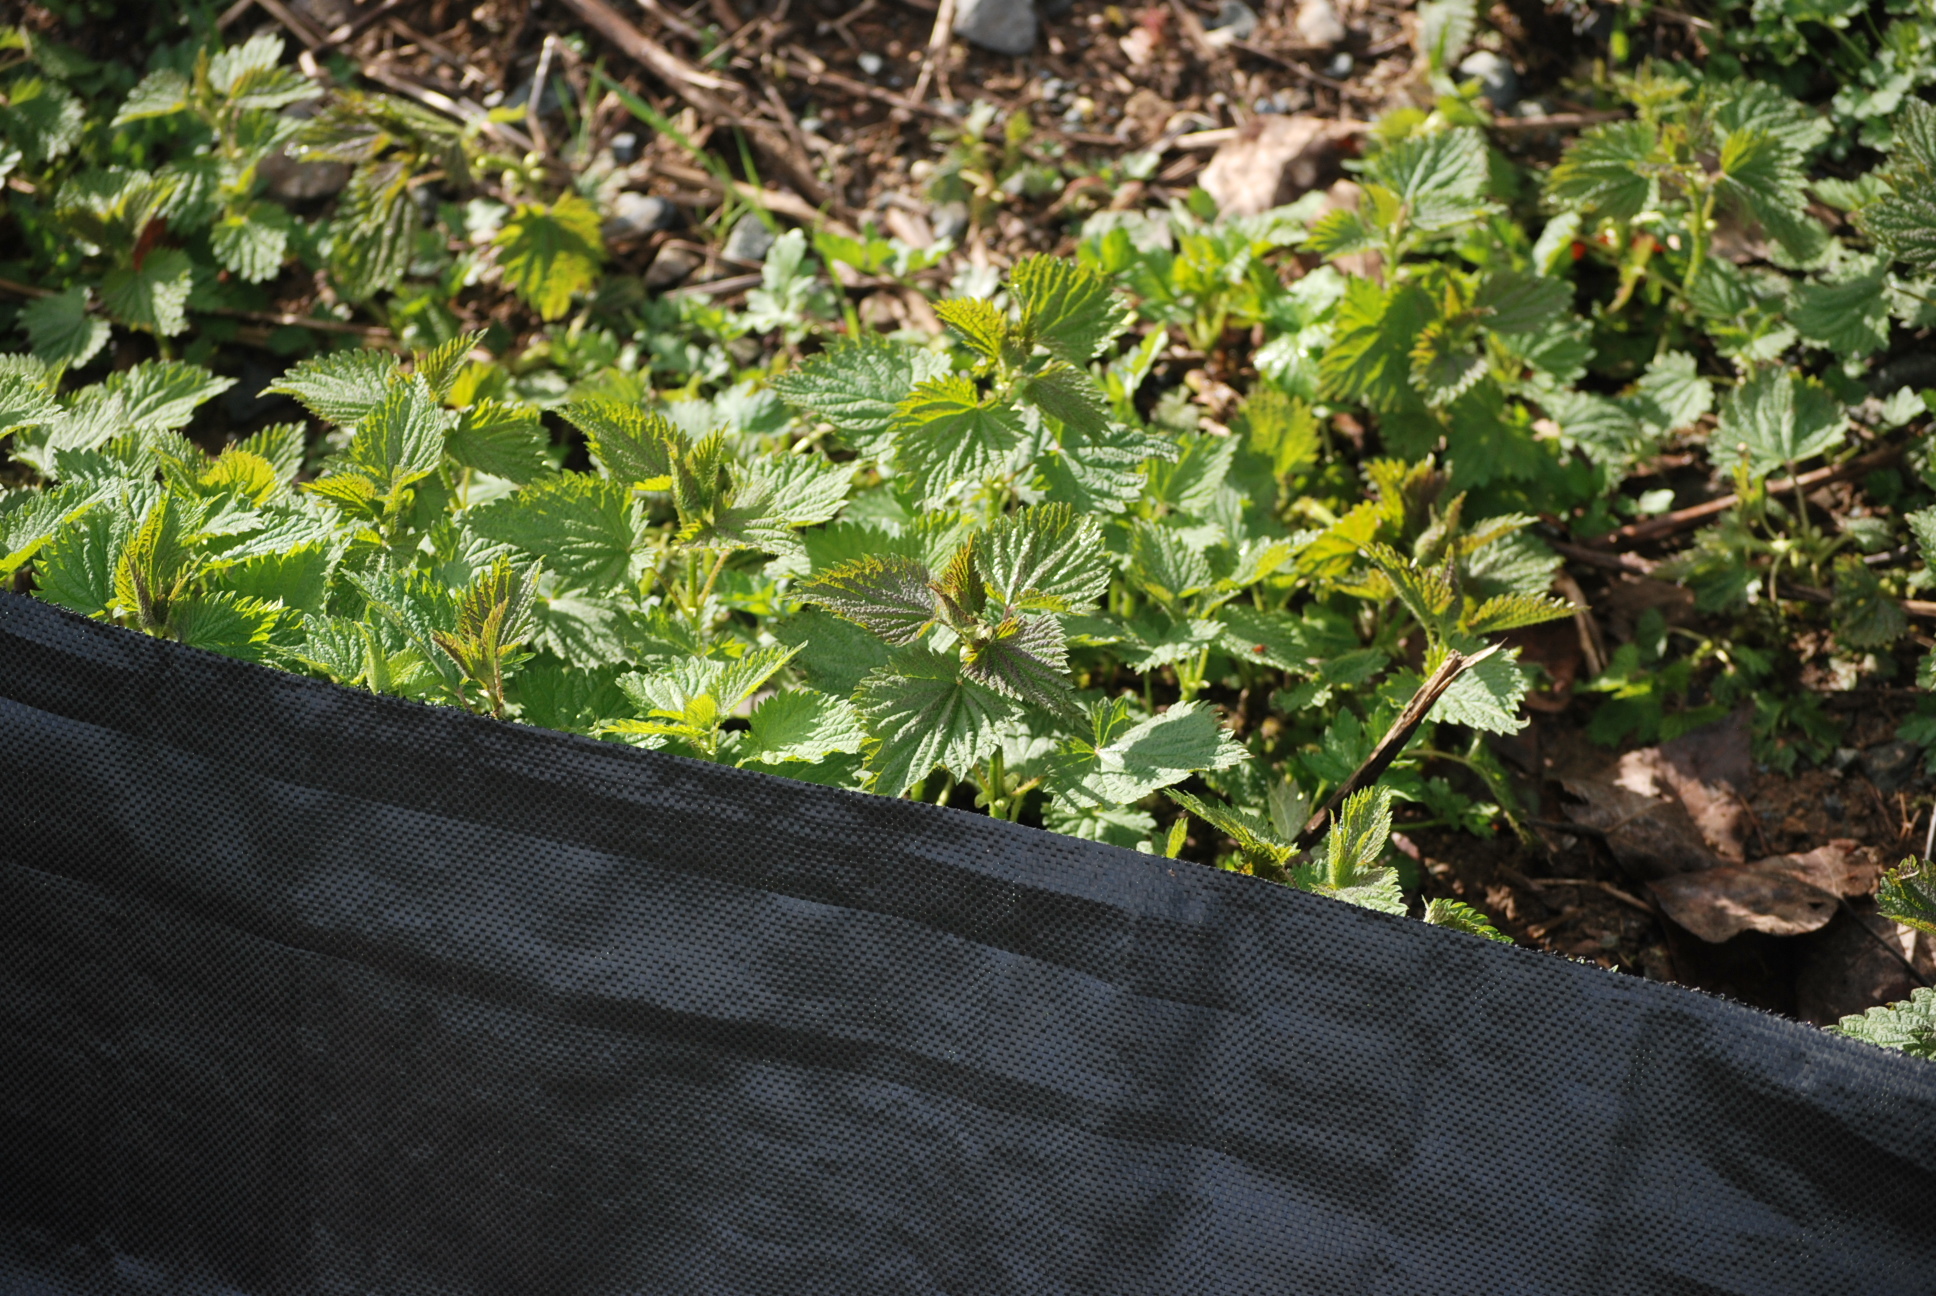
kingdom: Plantae
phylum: Tracheophyta
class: Magnoliopsida
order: Rosales
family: Urticaceae
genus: Urtica
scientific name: Urtica dioica
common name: Common nettle
